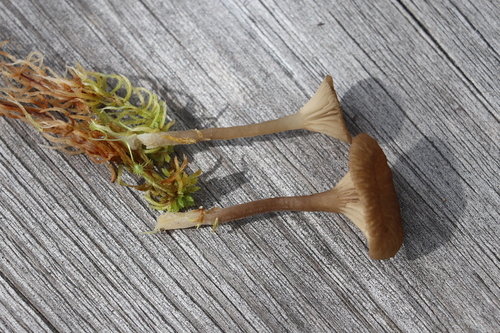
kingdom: Fungi
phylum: Basidiomycota
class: Agaricomycetes
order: Agaricales
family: Hygrophoraceae
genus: Lichenomphalia
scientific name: Lichenomphalia umbellifera
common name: Heath navel
